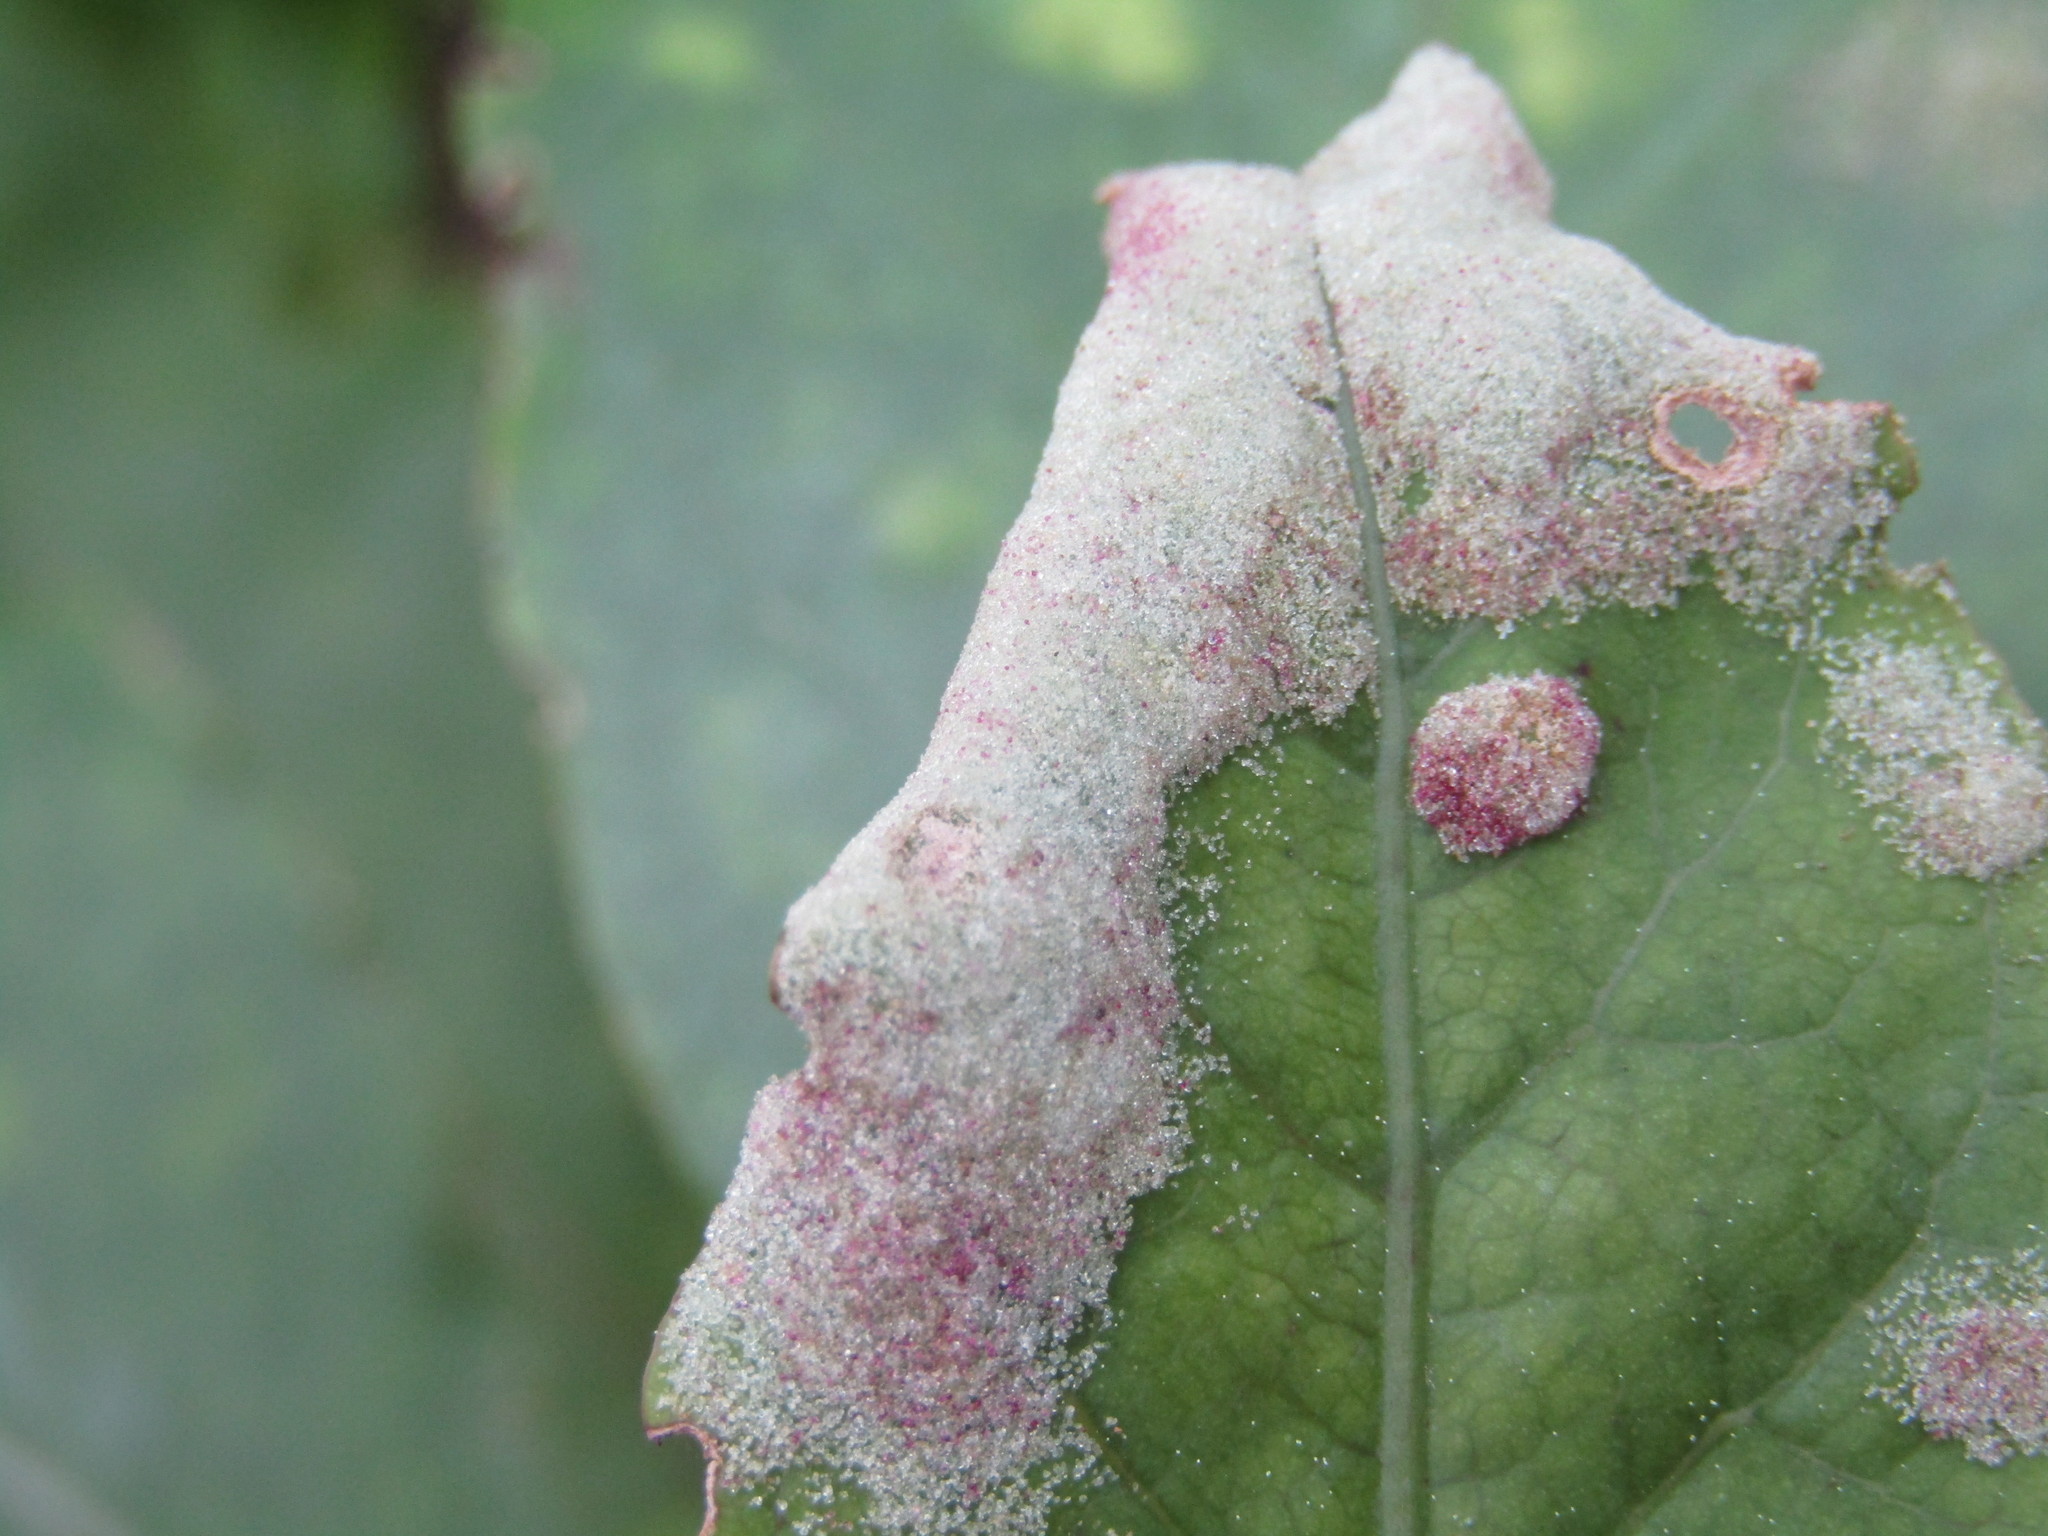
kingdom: Animalia
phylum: Arthropoda
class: Arachnida
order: Trombidiformes
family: Eriophyidae
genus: Phyllocoptes
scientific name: Phyllocoptes coprosmae
